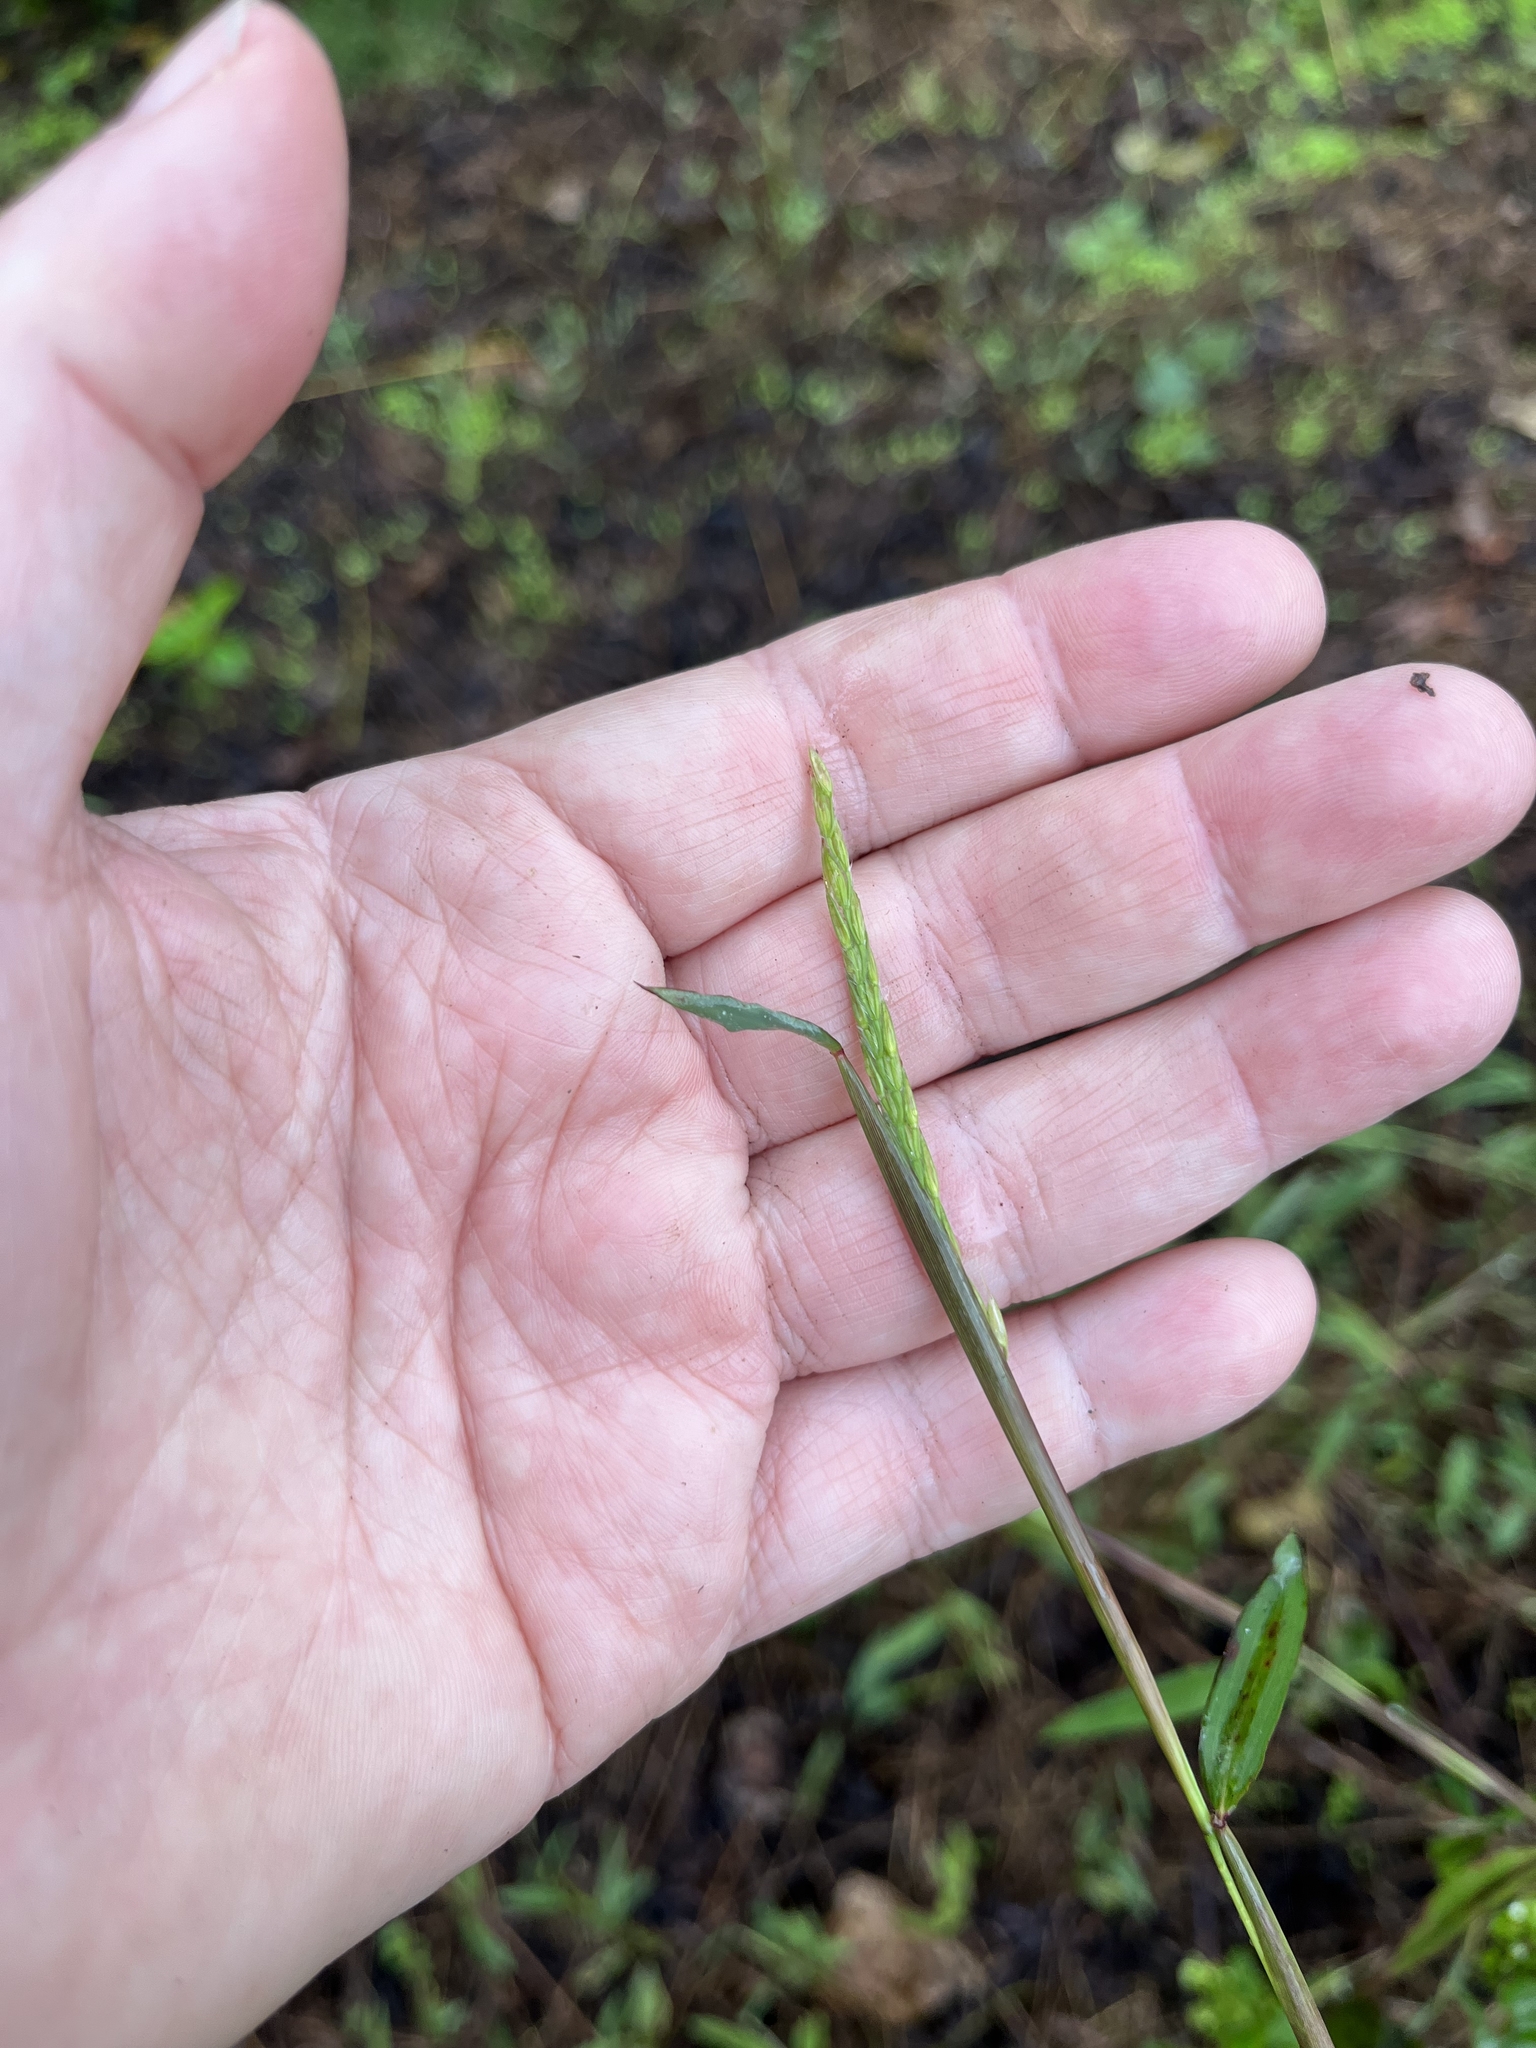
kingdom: Plantae
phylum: Tracheophyta
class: Liliopsida
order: Poales
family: Poaceae
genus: Microstegium
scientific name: Microstegium vimineum
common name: Japanese stiltgrass
